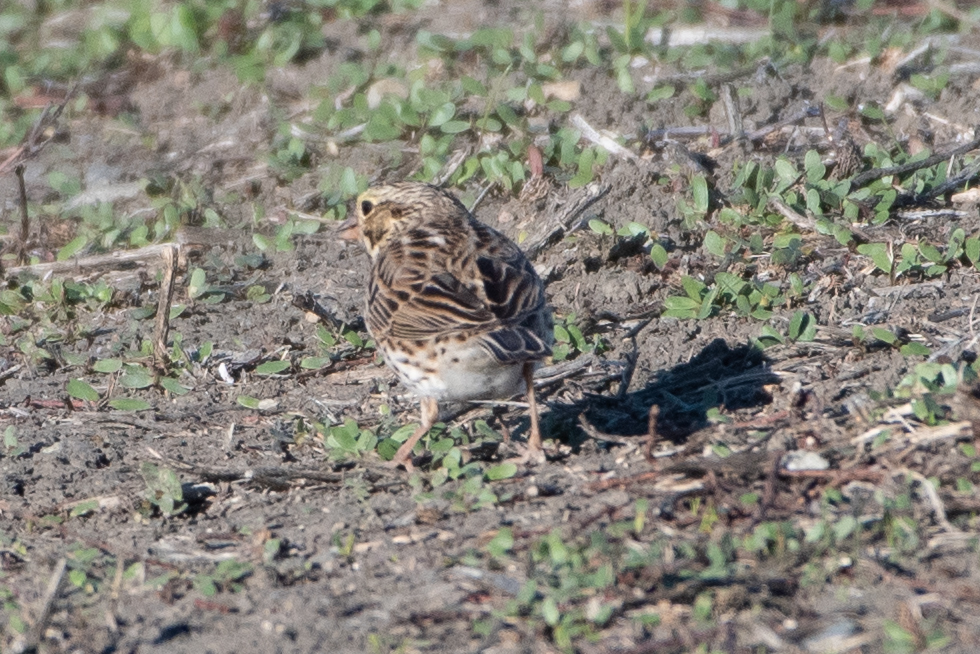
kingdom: Animalia
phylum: Chordata
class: Aves
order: Passeriformes
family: Passerellidae
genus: Passerculus
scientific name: Passerculus sandwichensis
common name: Savannah sparrow
